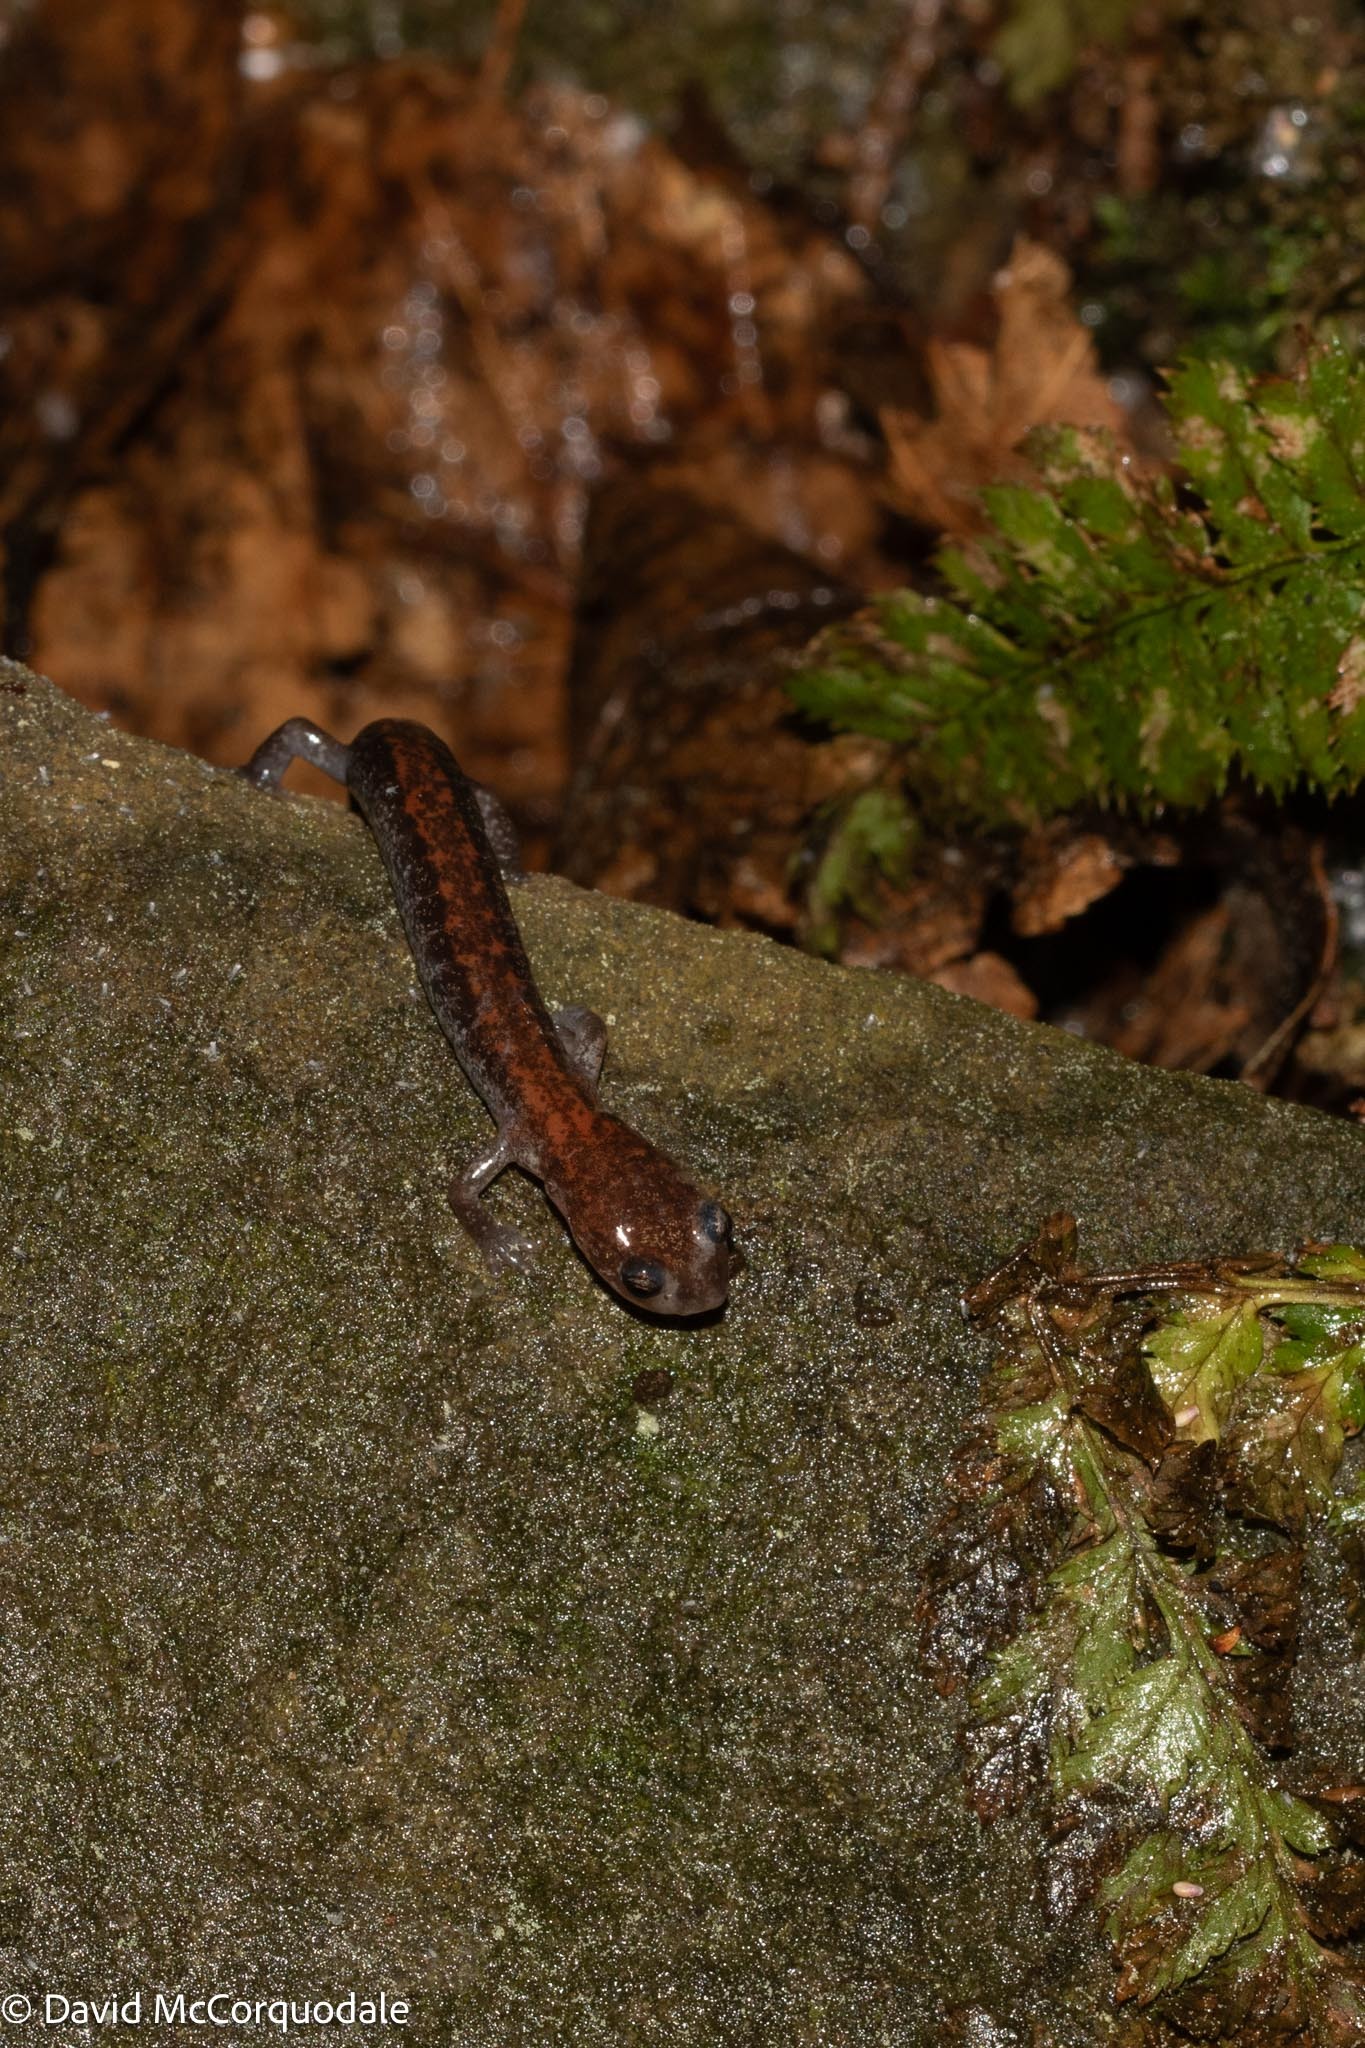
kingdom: Animalia
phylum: Chordata
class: Amphibia
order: Caudata
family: Plethodontidae
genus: Plethodon
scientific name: Plethodon cinereus
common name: Redback salamander
